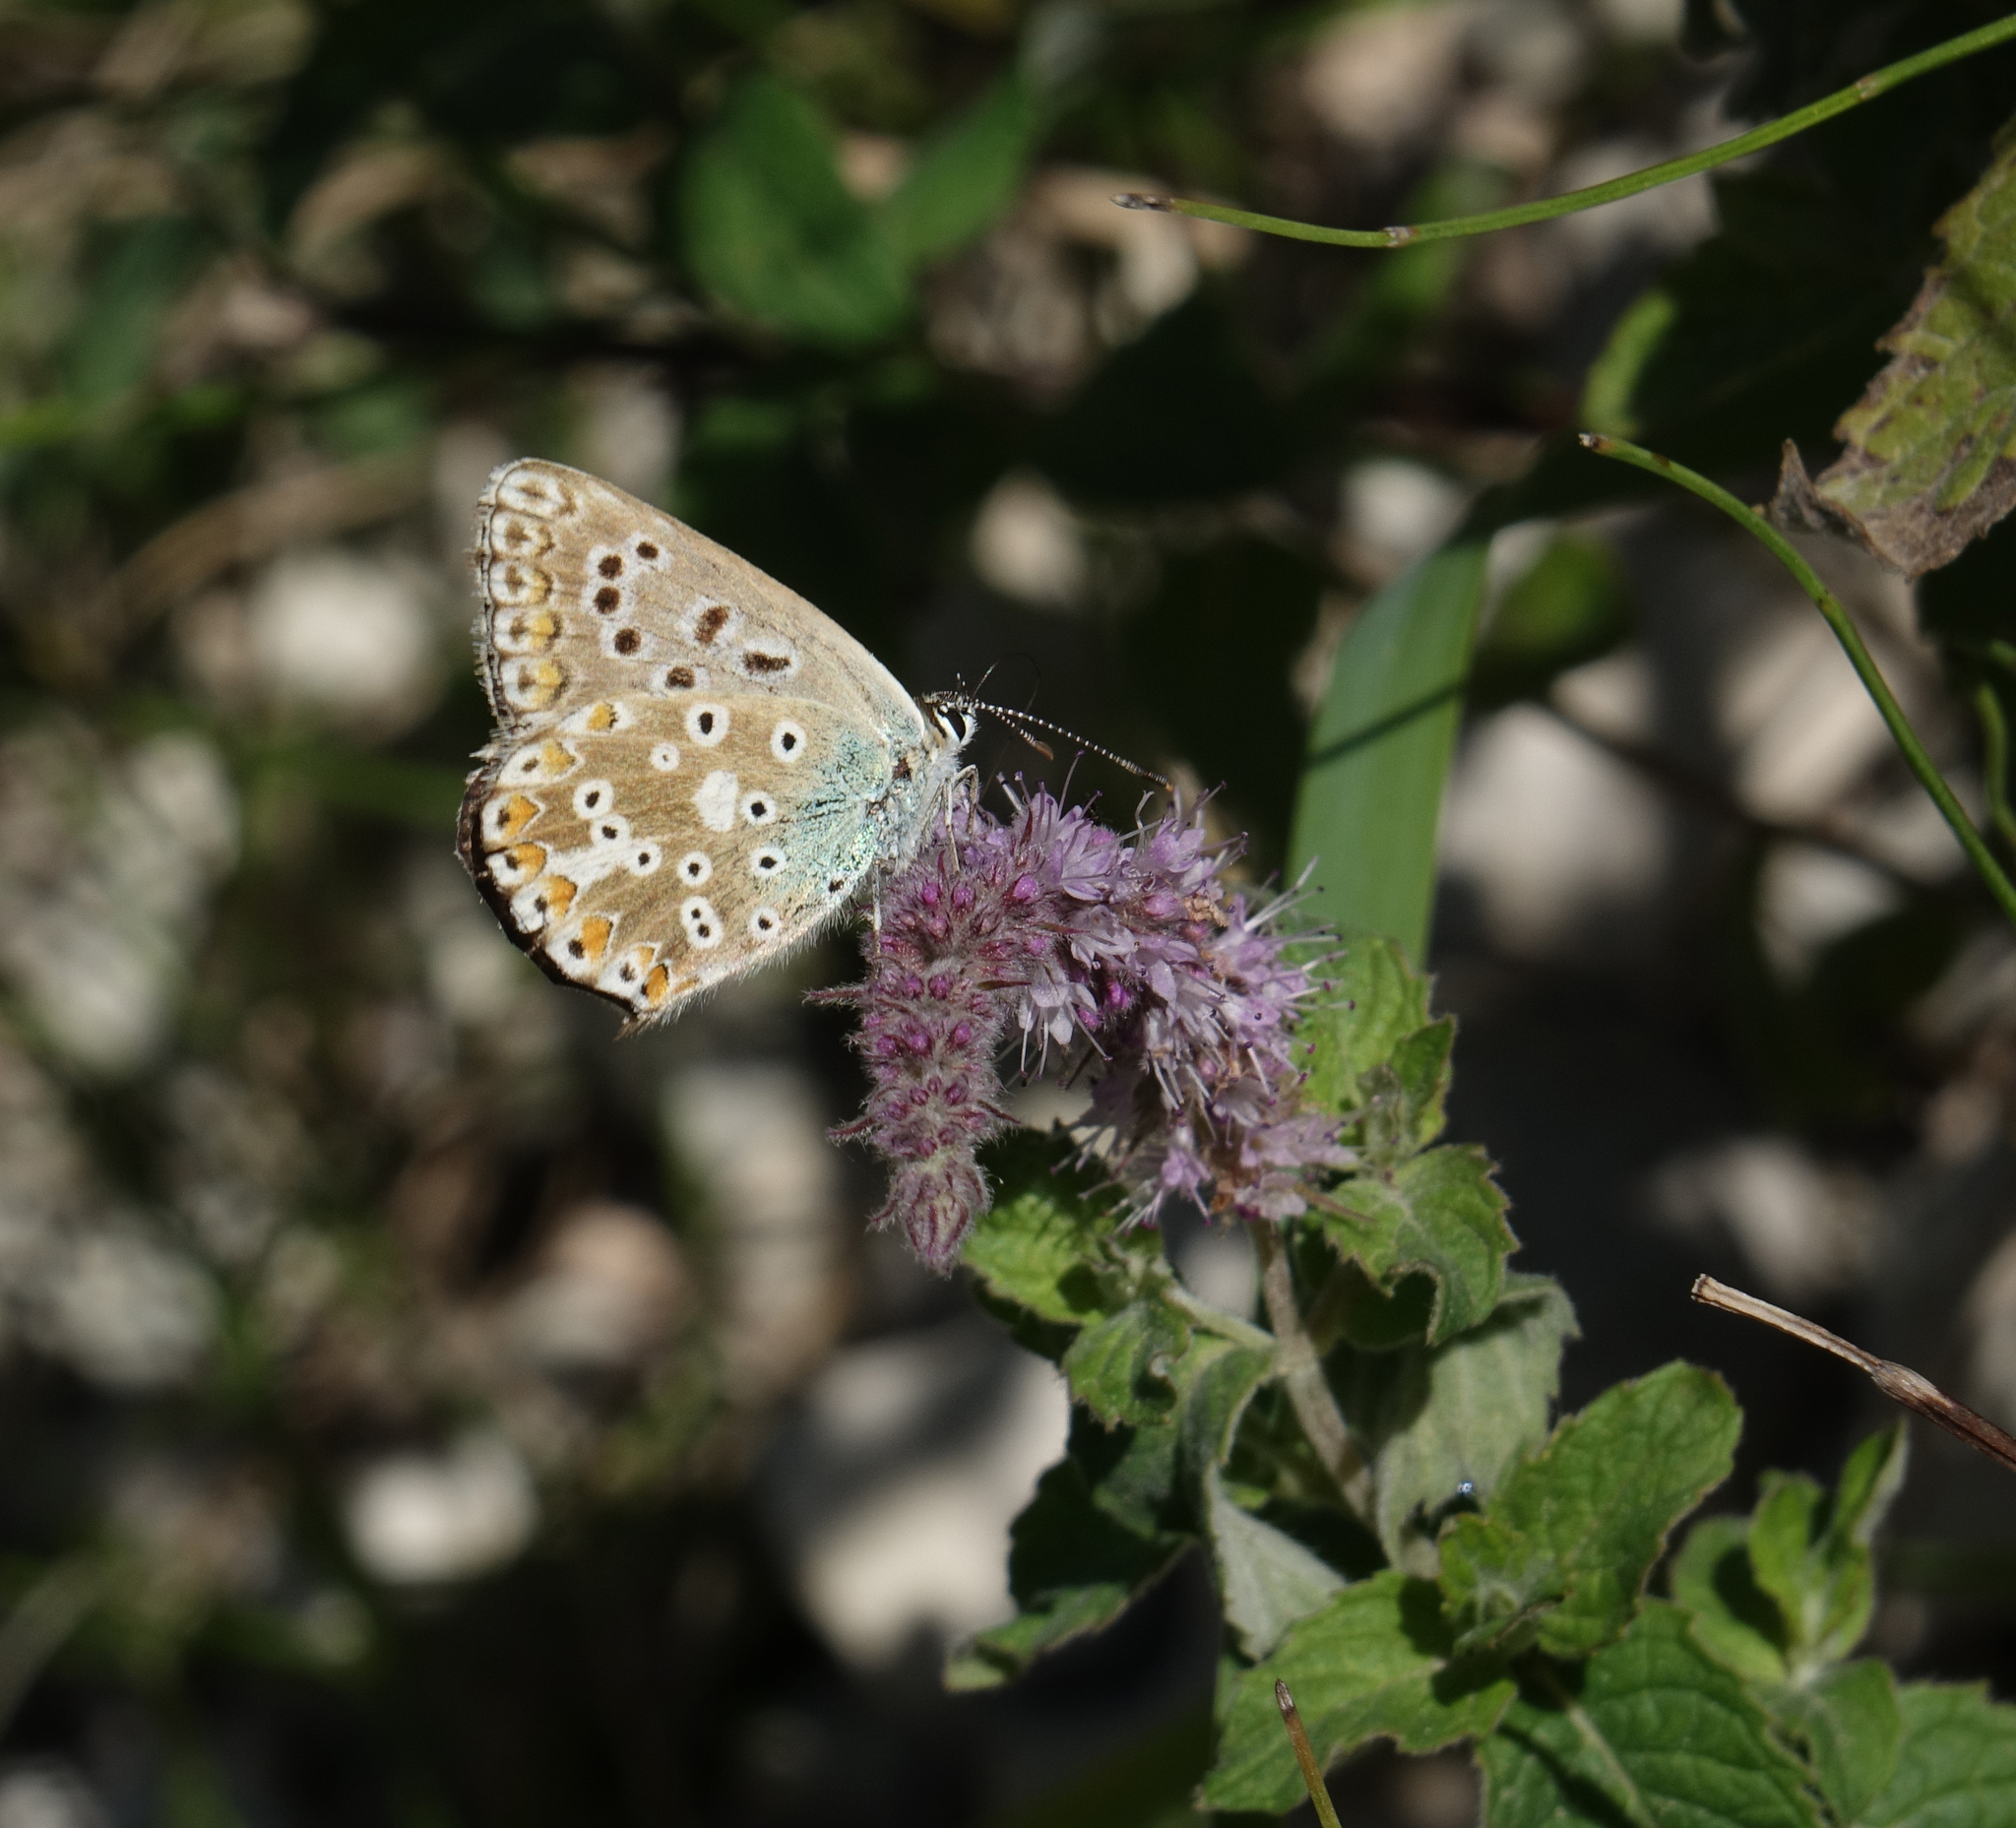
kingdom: Animalia
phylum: Arthropoda
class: Insecta
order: Lepidoptera
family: Lycaenidae
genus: Agriades
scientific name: Agriades corydonius
